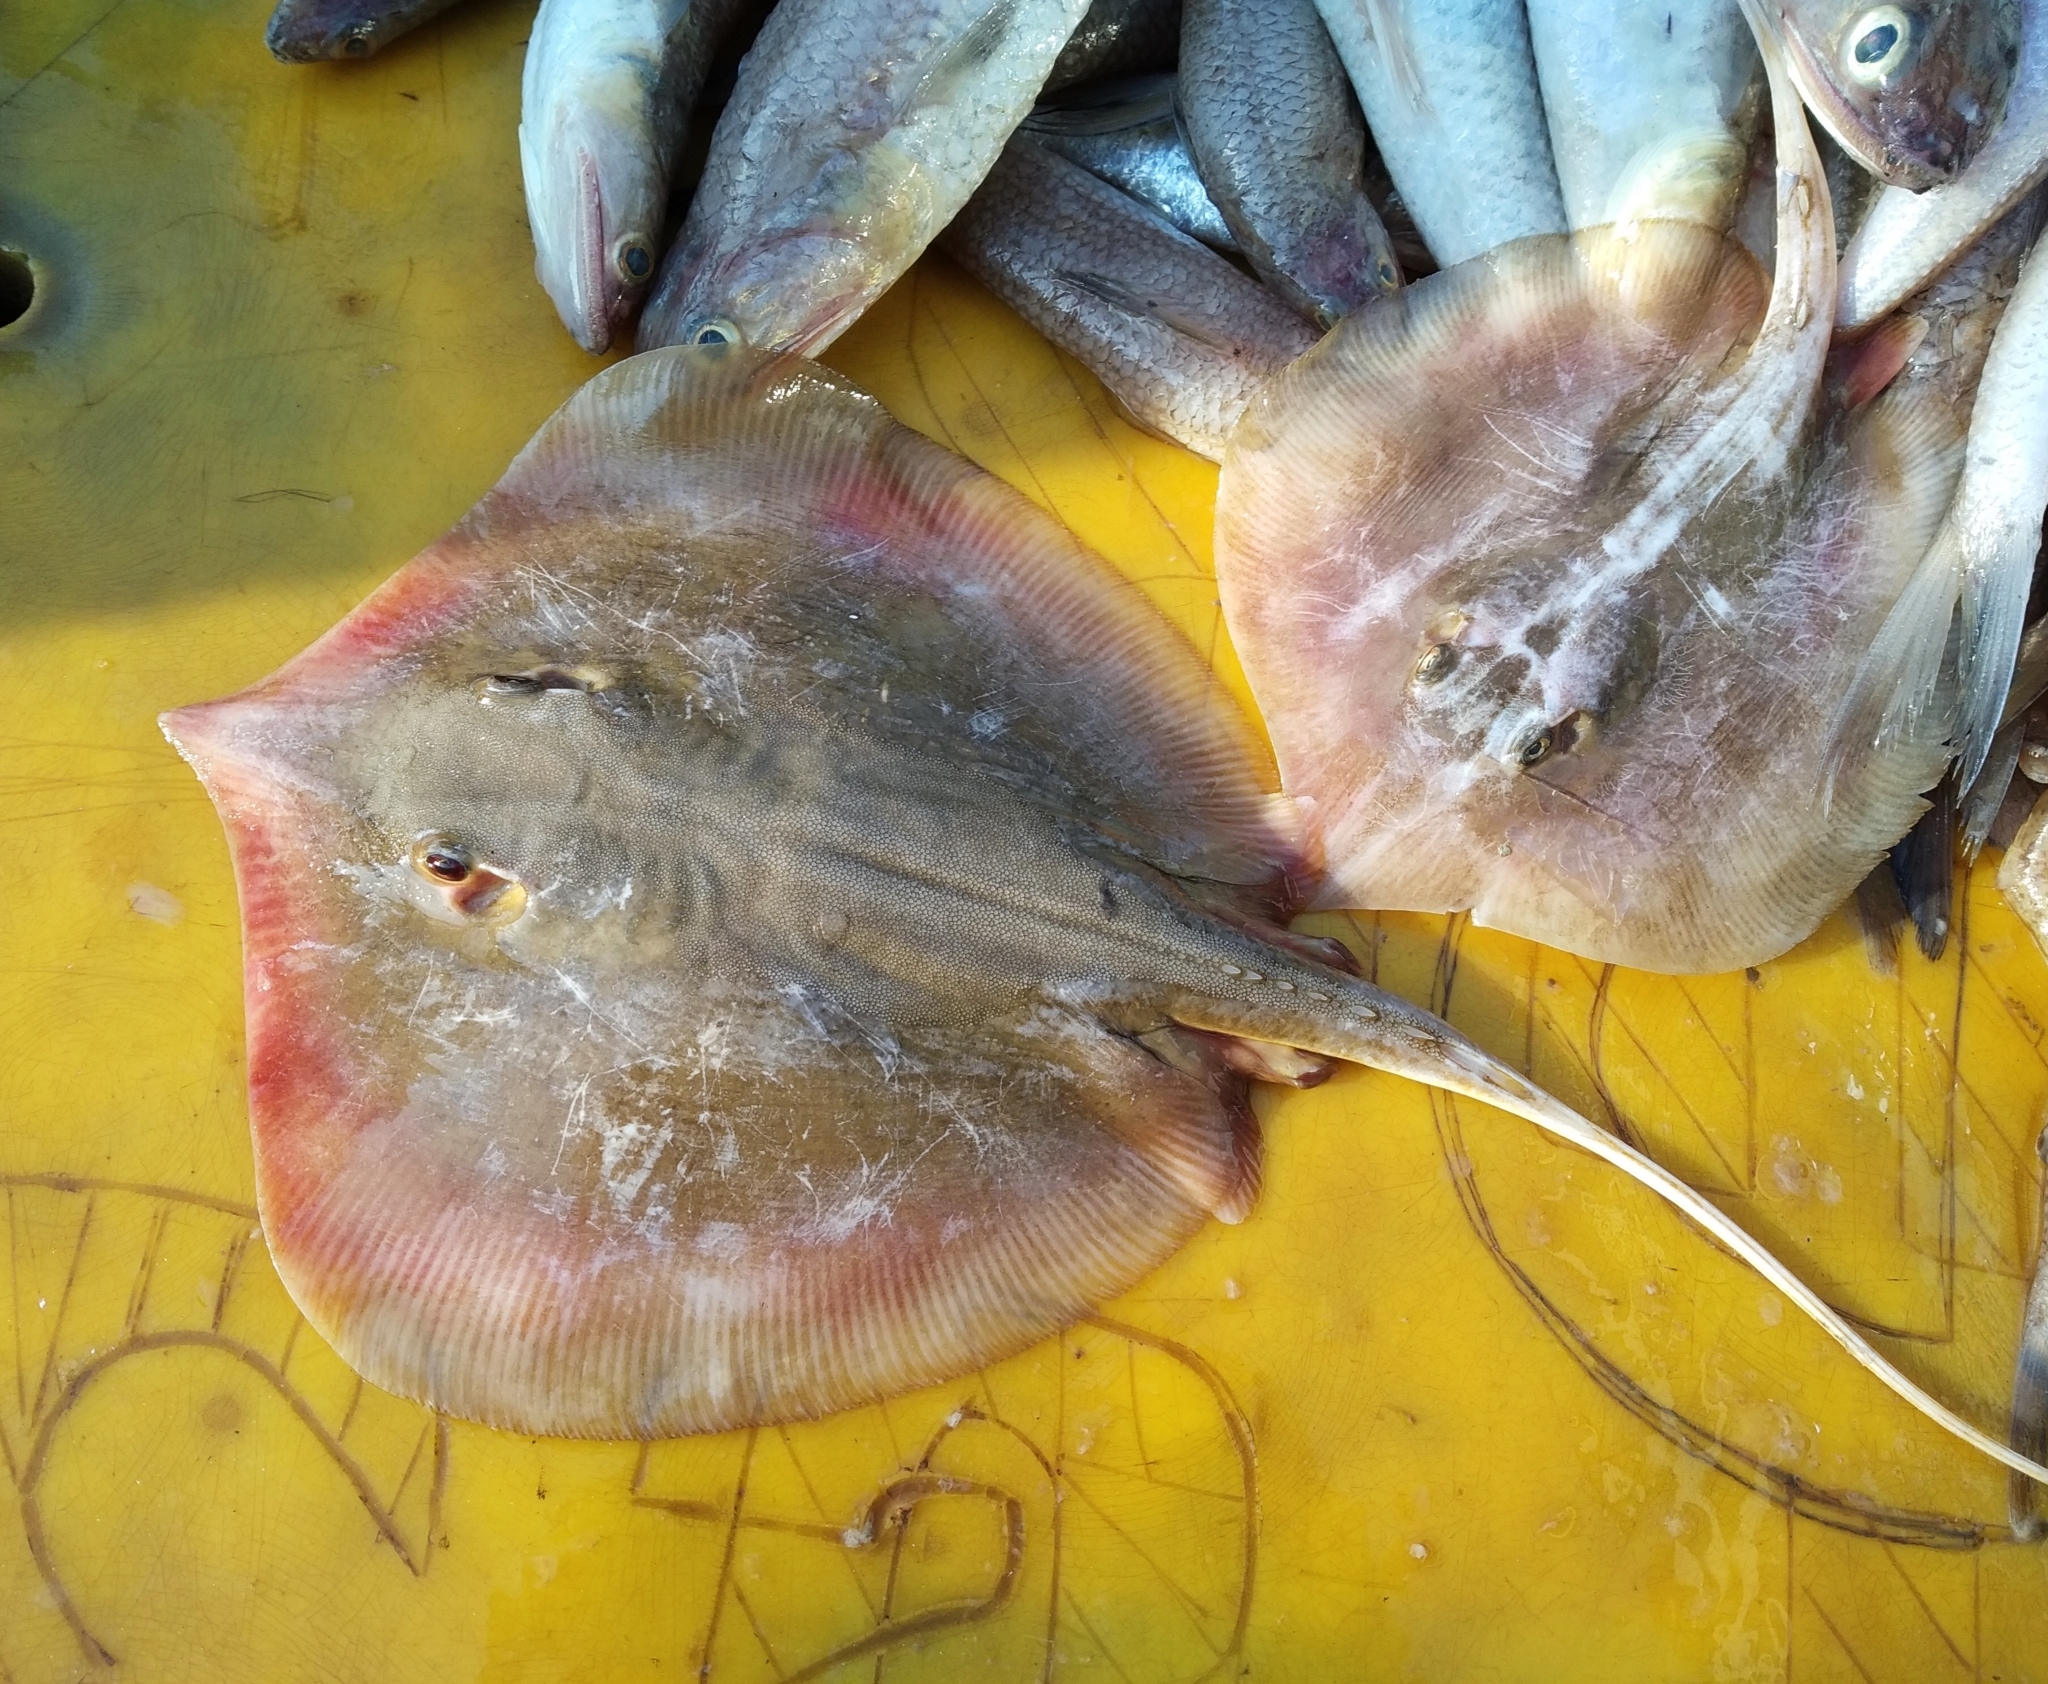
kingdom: Animalia
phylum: Chordata
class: Elasmobranchii
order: Myliobatiformes
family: Dasyatidae
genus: Brevitrygon
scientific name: Brevitrygon heterura
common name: Dwarf whipray
